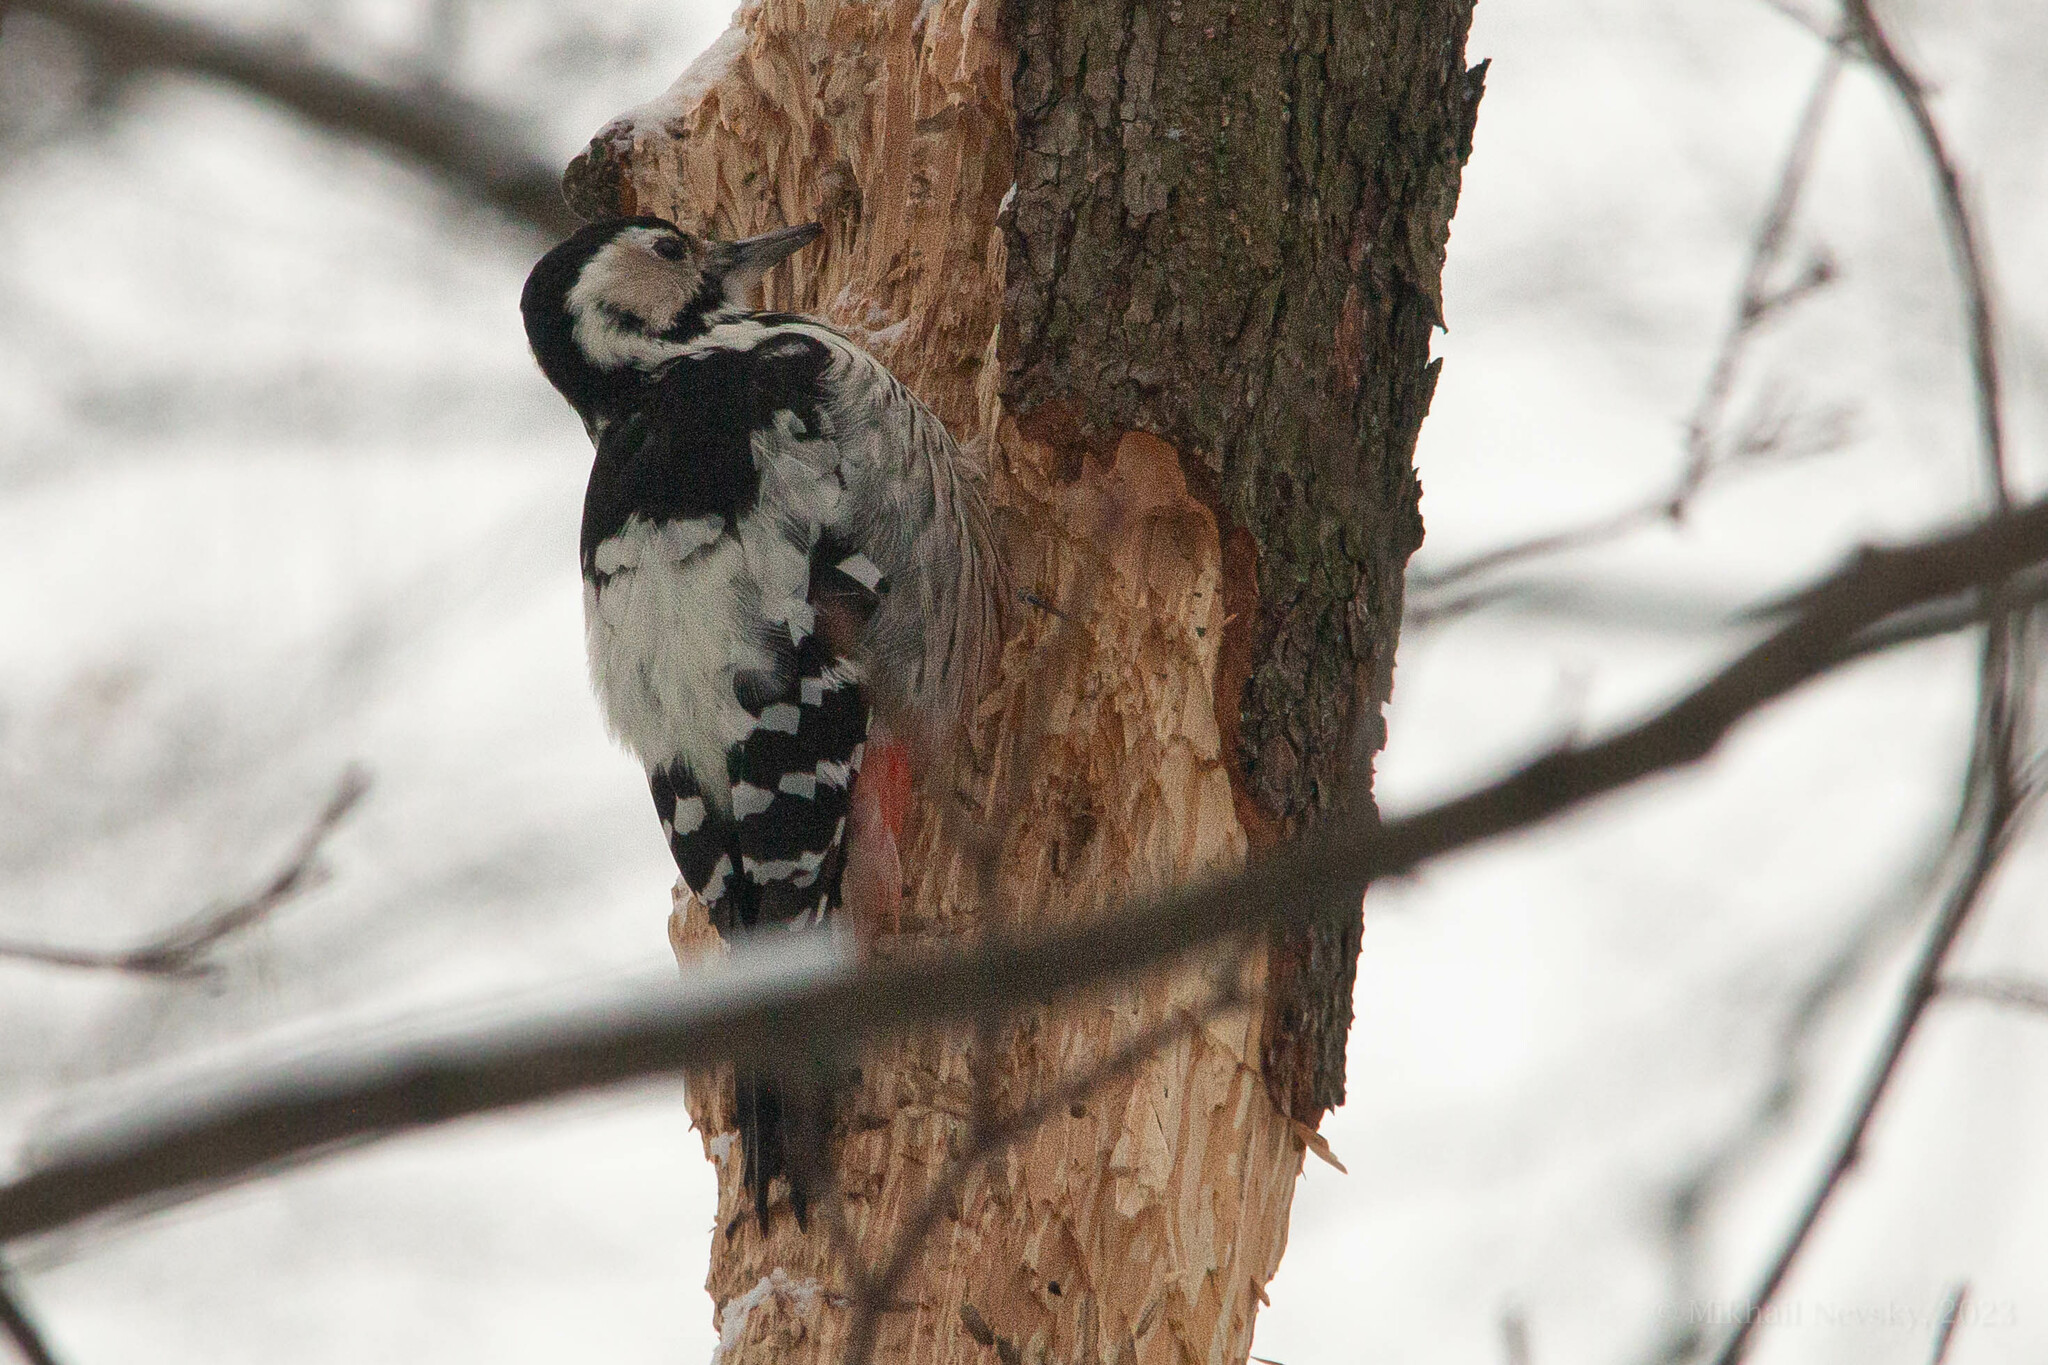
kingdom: Animalia
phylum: Chordata
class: Aves
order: Piciformes
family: Picidae
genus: Dendrocopos
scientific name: Dendrocopos leucotos
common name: White-backed woodpecker
